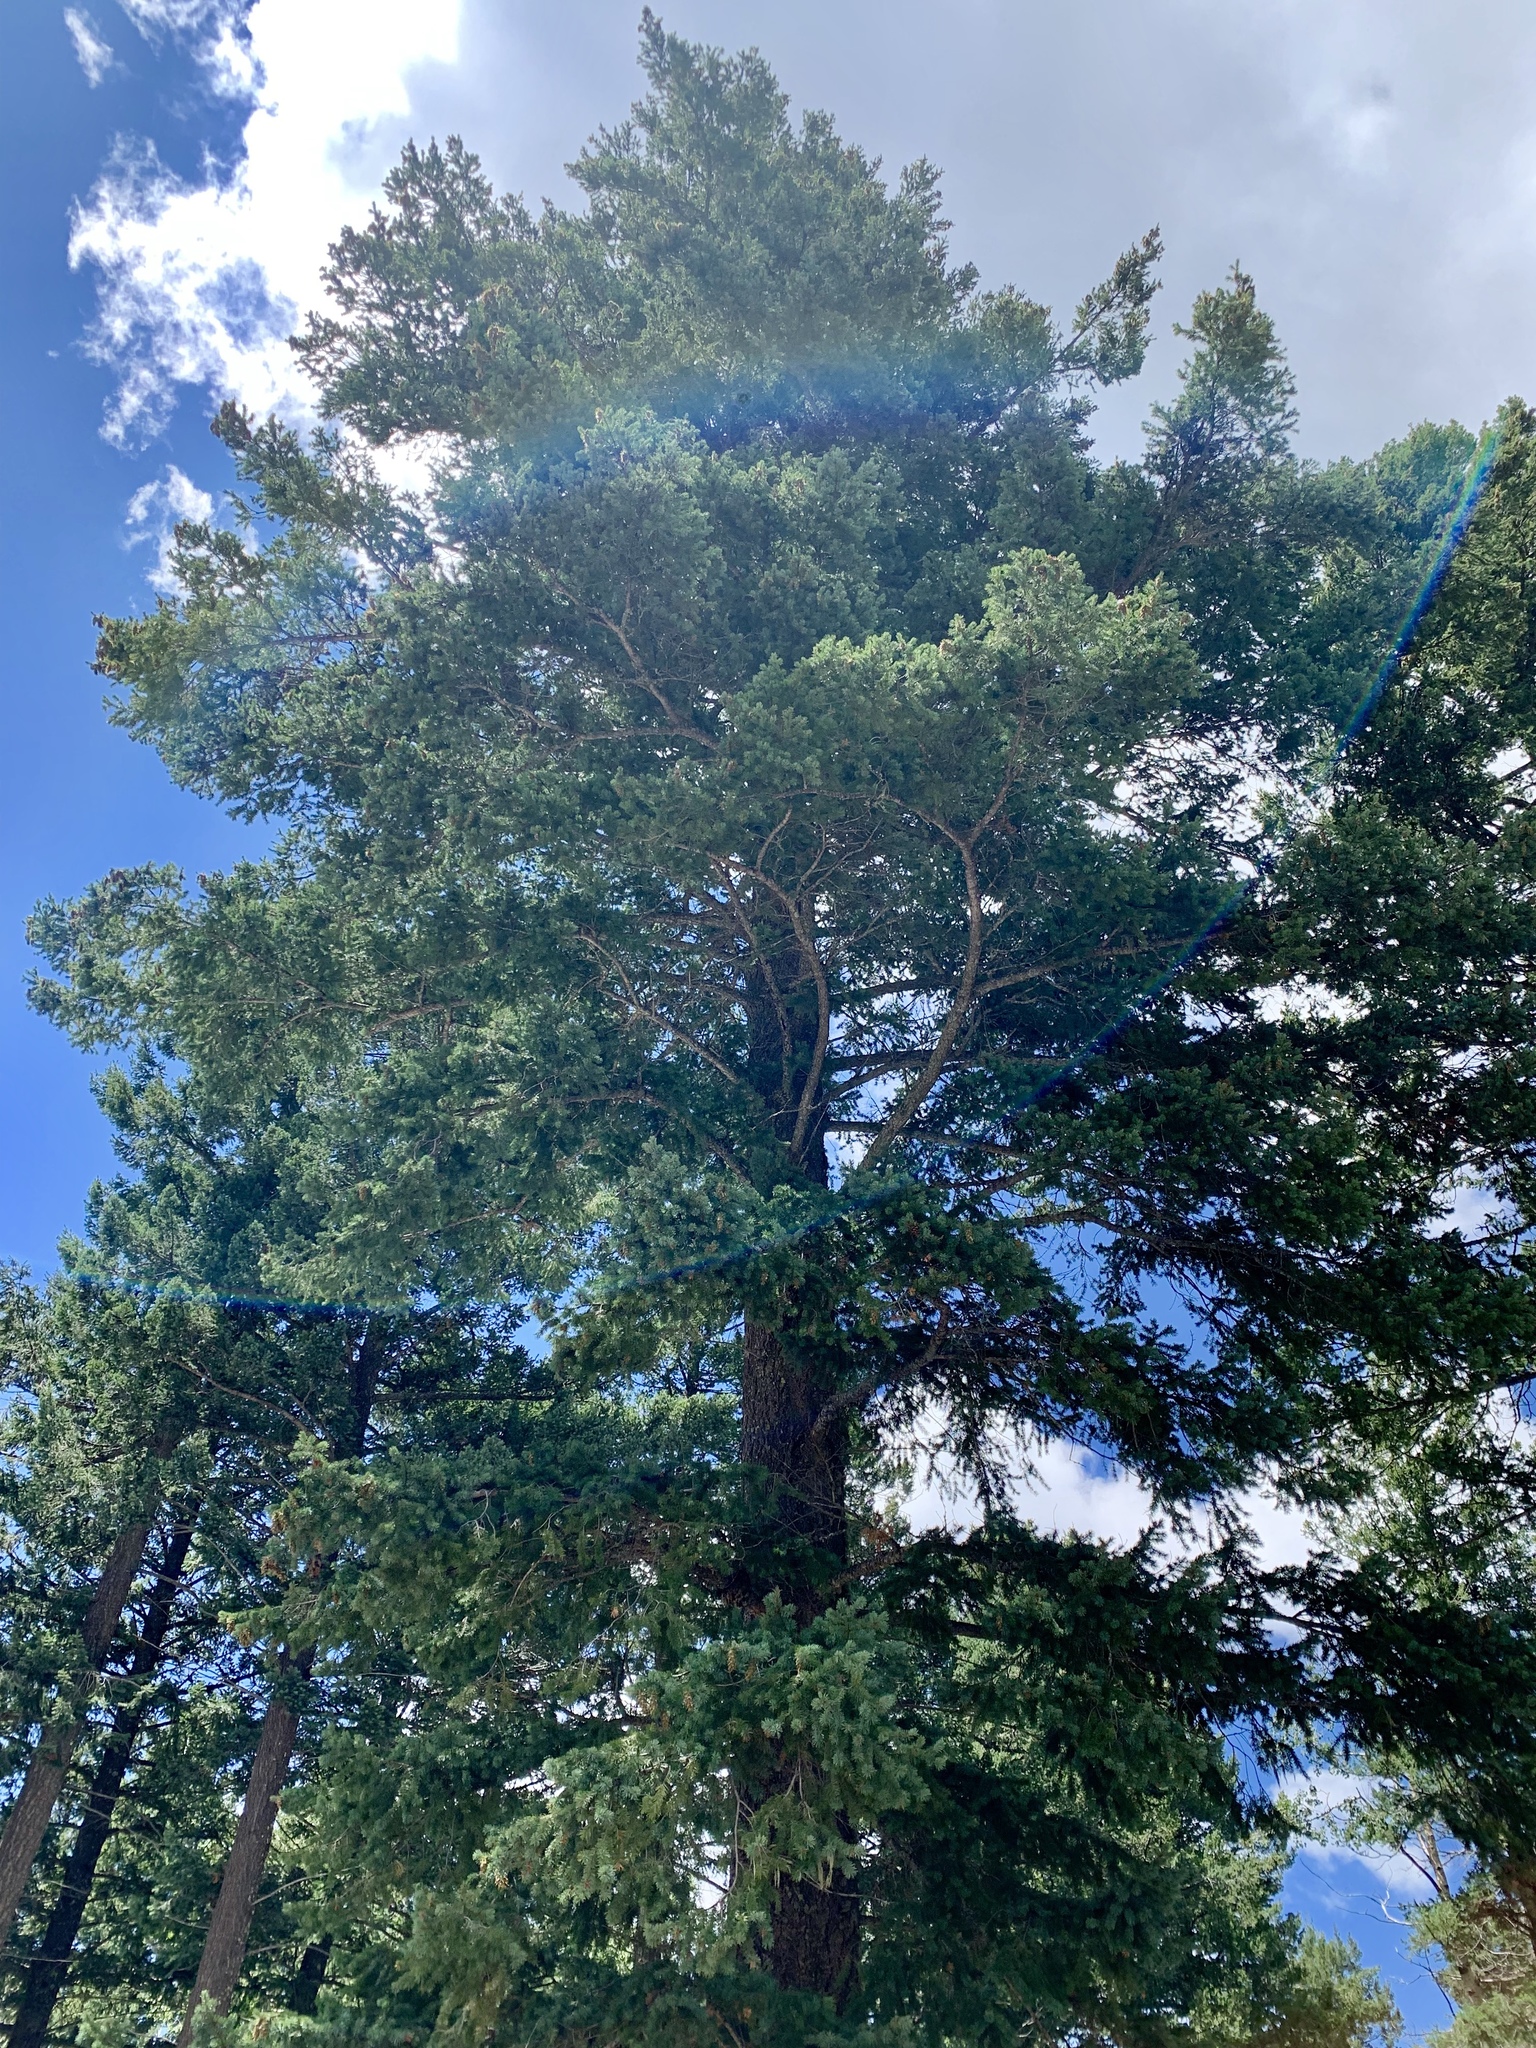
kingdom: Plantae
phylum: Tracheophyta
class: Pinopsida
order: Pinales
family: Pinaceae
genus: Pseudotsuga
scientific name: Pseudotsuga menziesii
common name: Douglas fir
